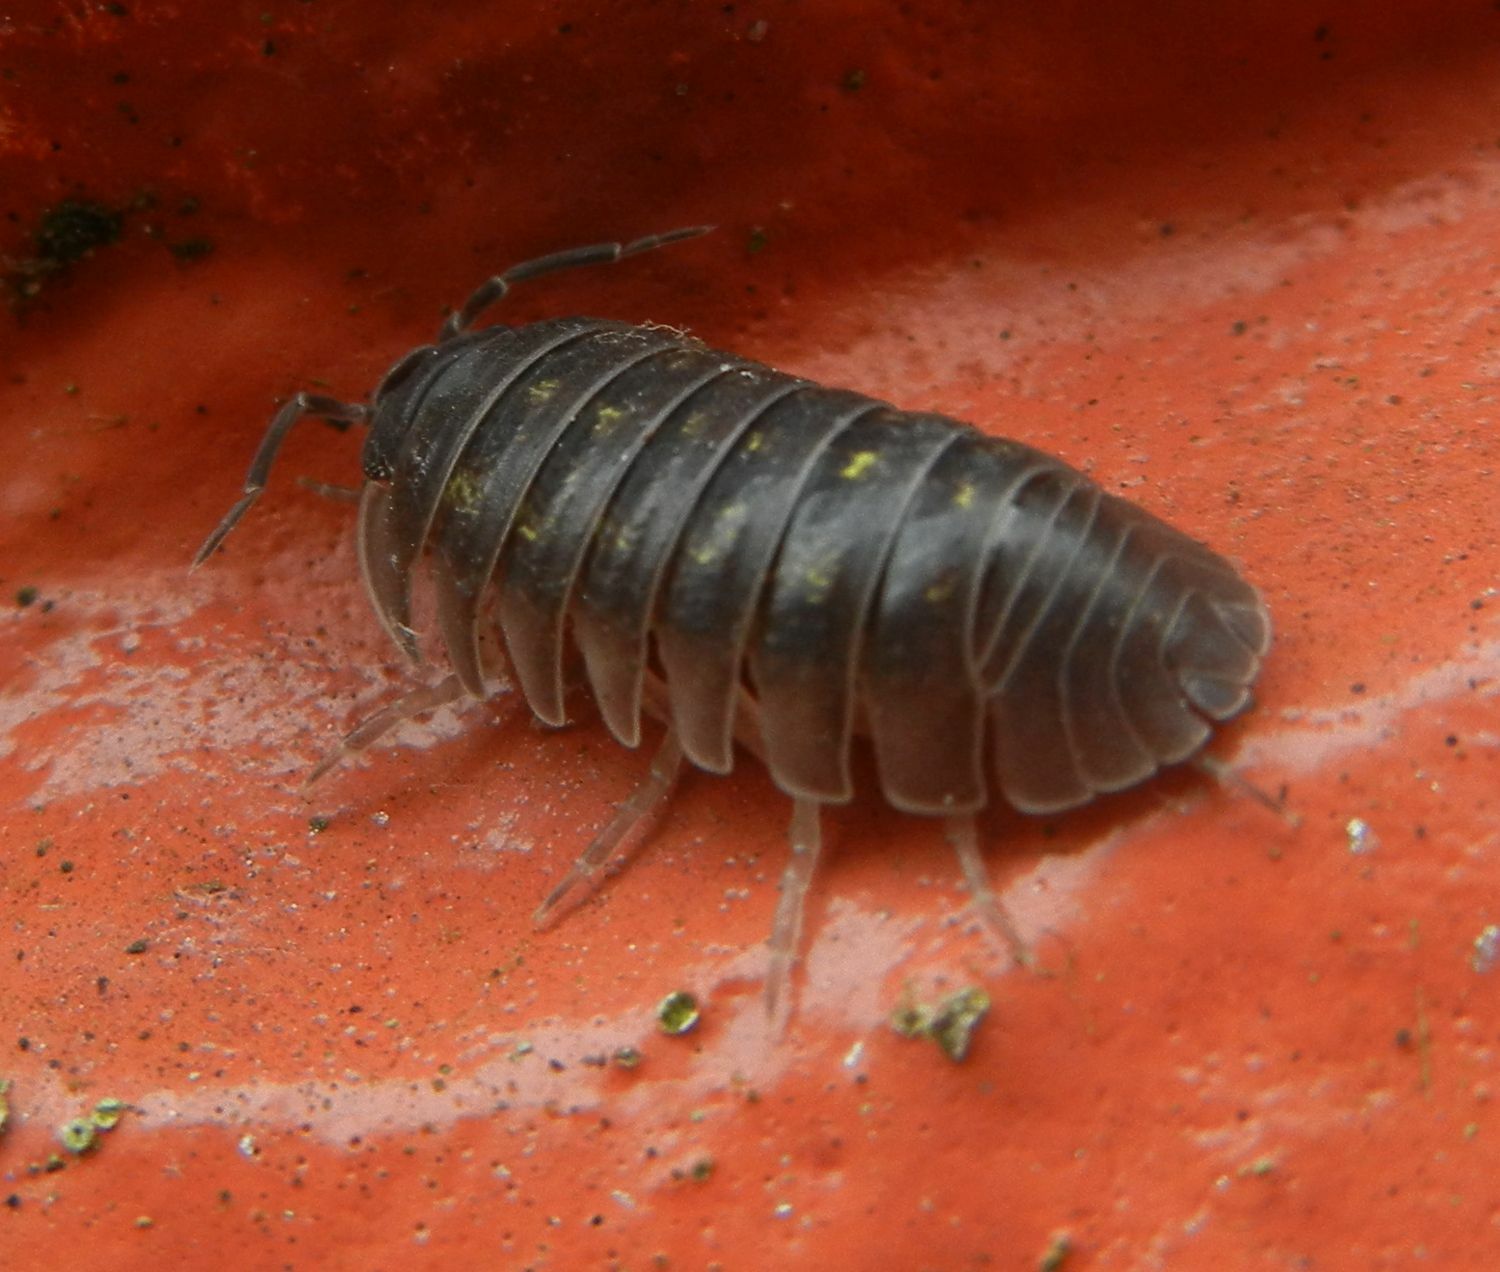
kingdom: Animalia
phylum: Arthropoda
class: Malacostraca
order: Isopoda
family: Armadillidiidae
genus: Armadillidium
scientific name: Armadillidium depressum
